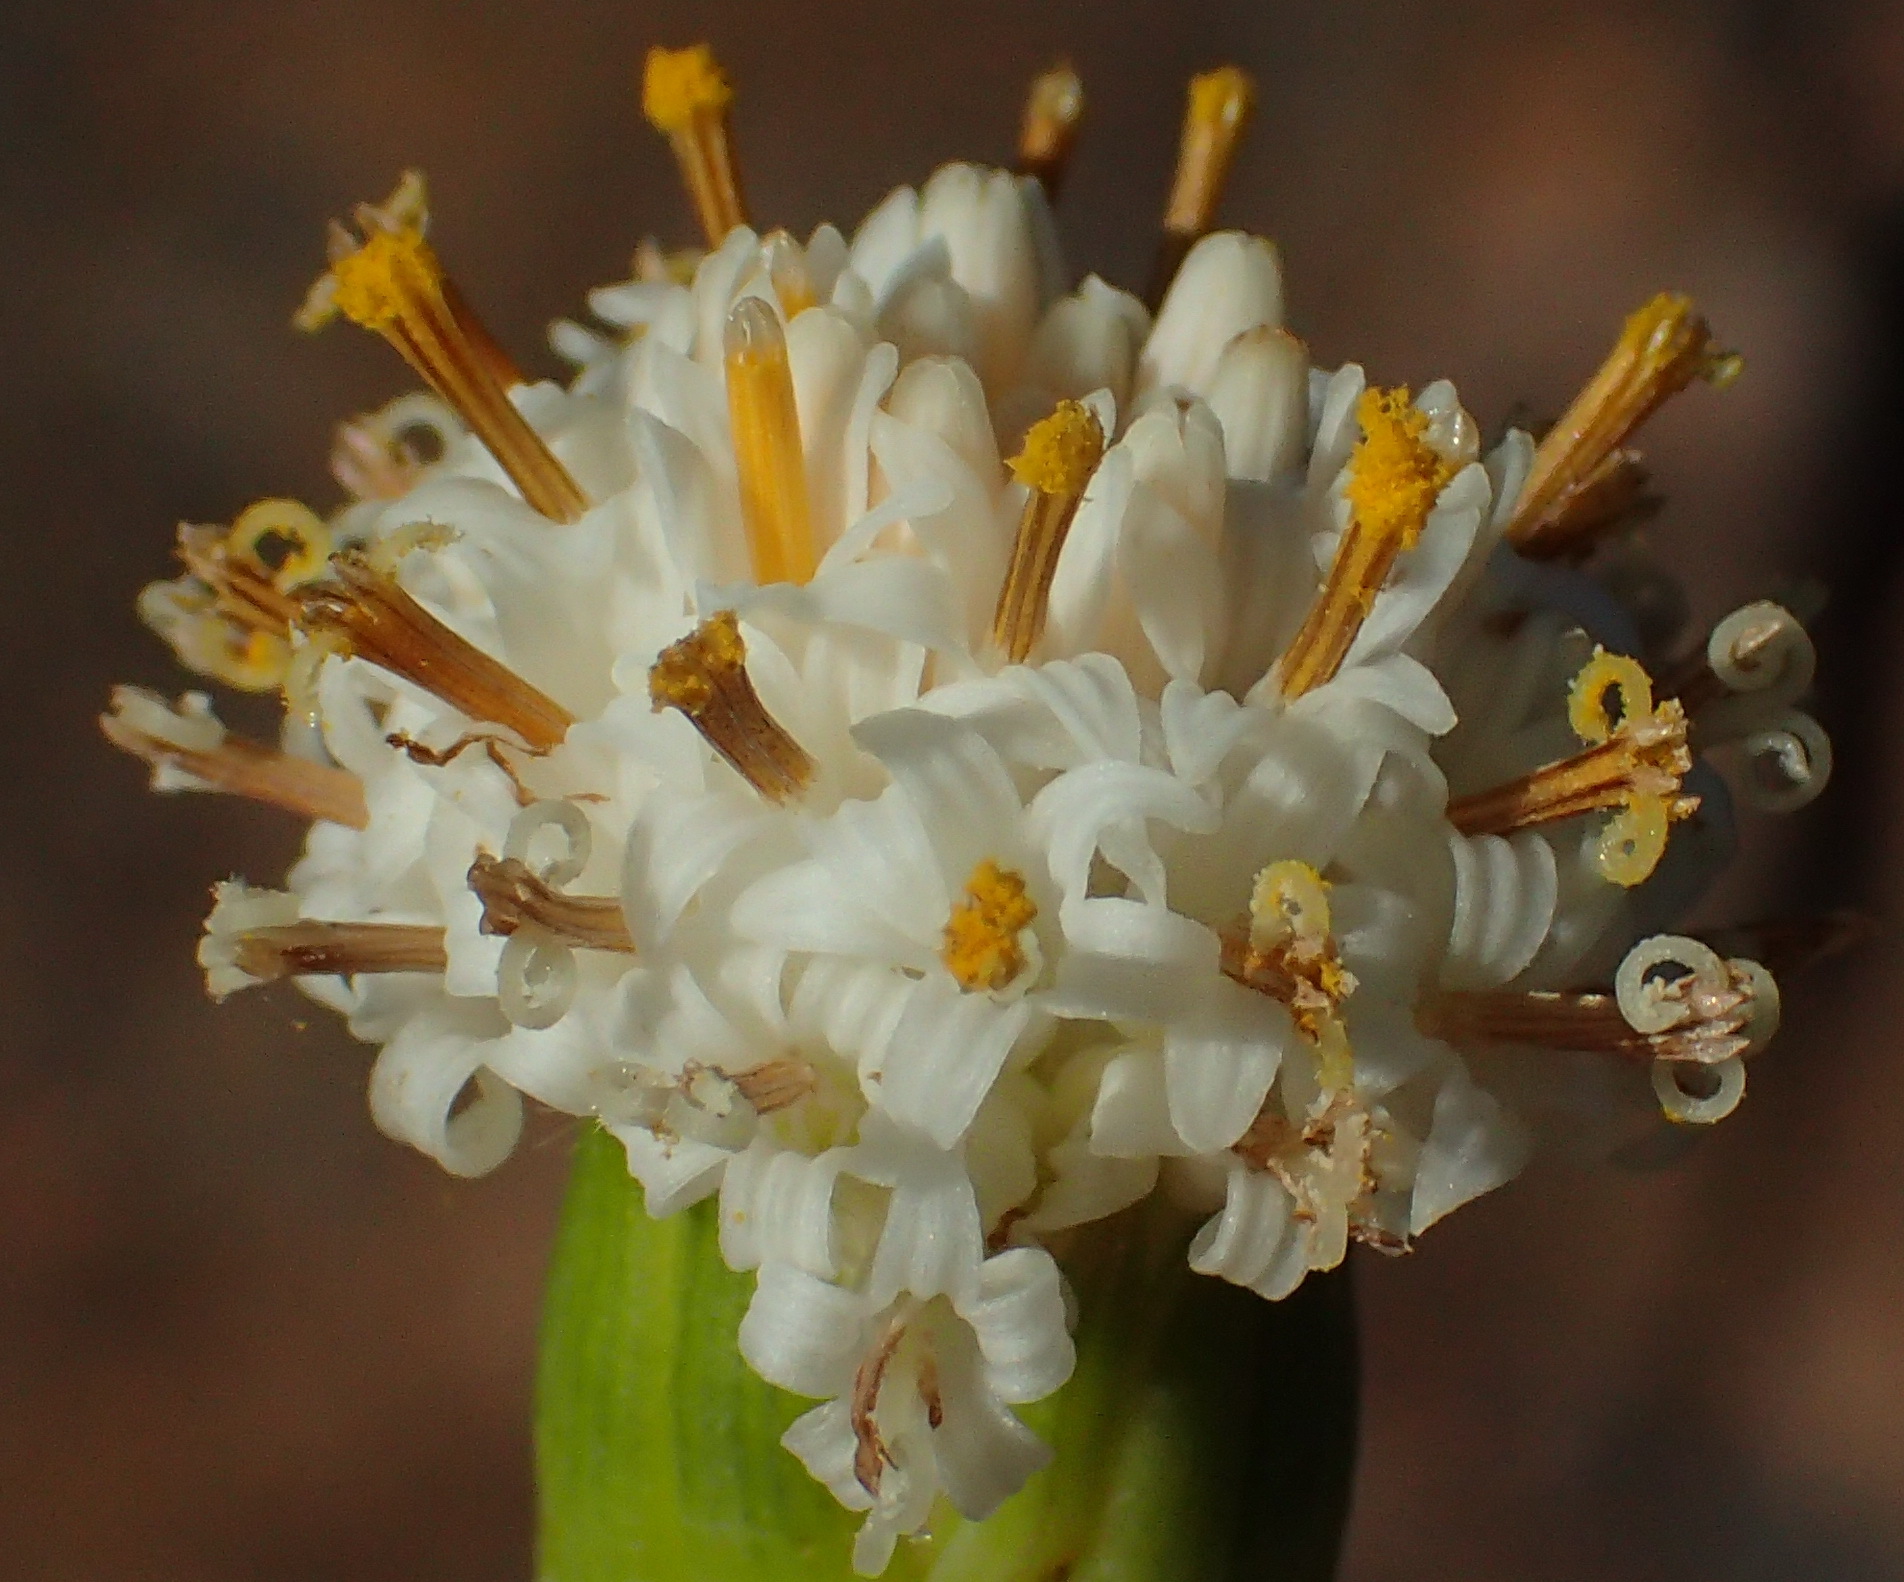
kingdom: Plantae
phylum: Tracheophyta
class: Magnoliopsida
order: Asterales
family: Asteraceae
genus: Curio
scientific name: Curio talinoides
